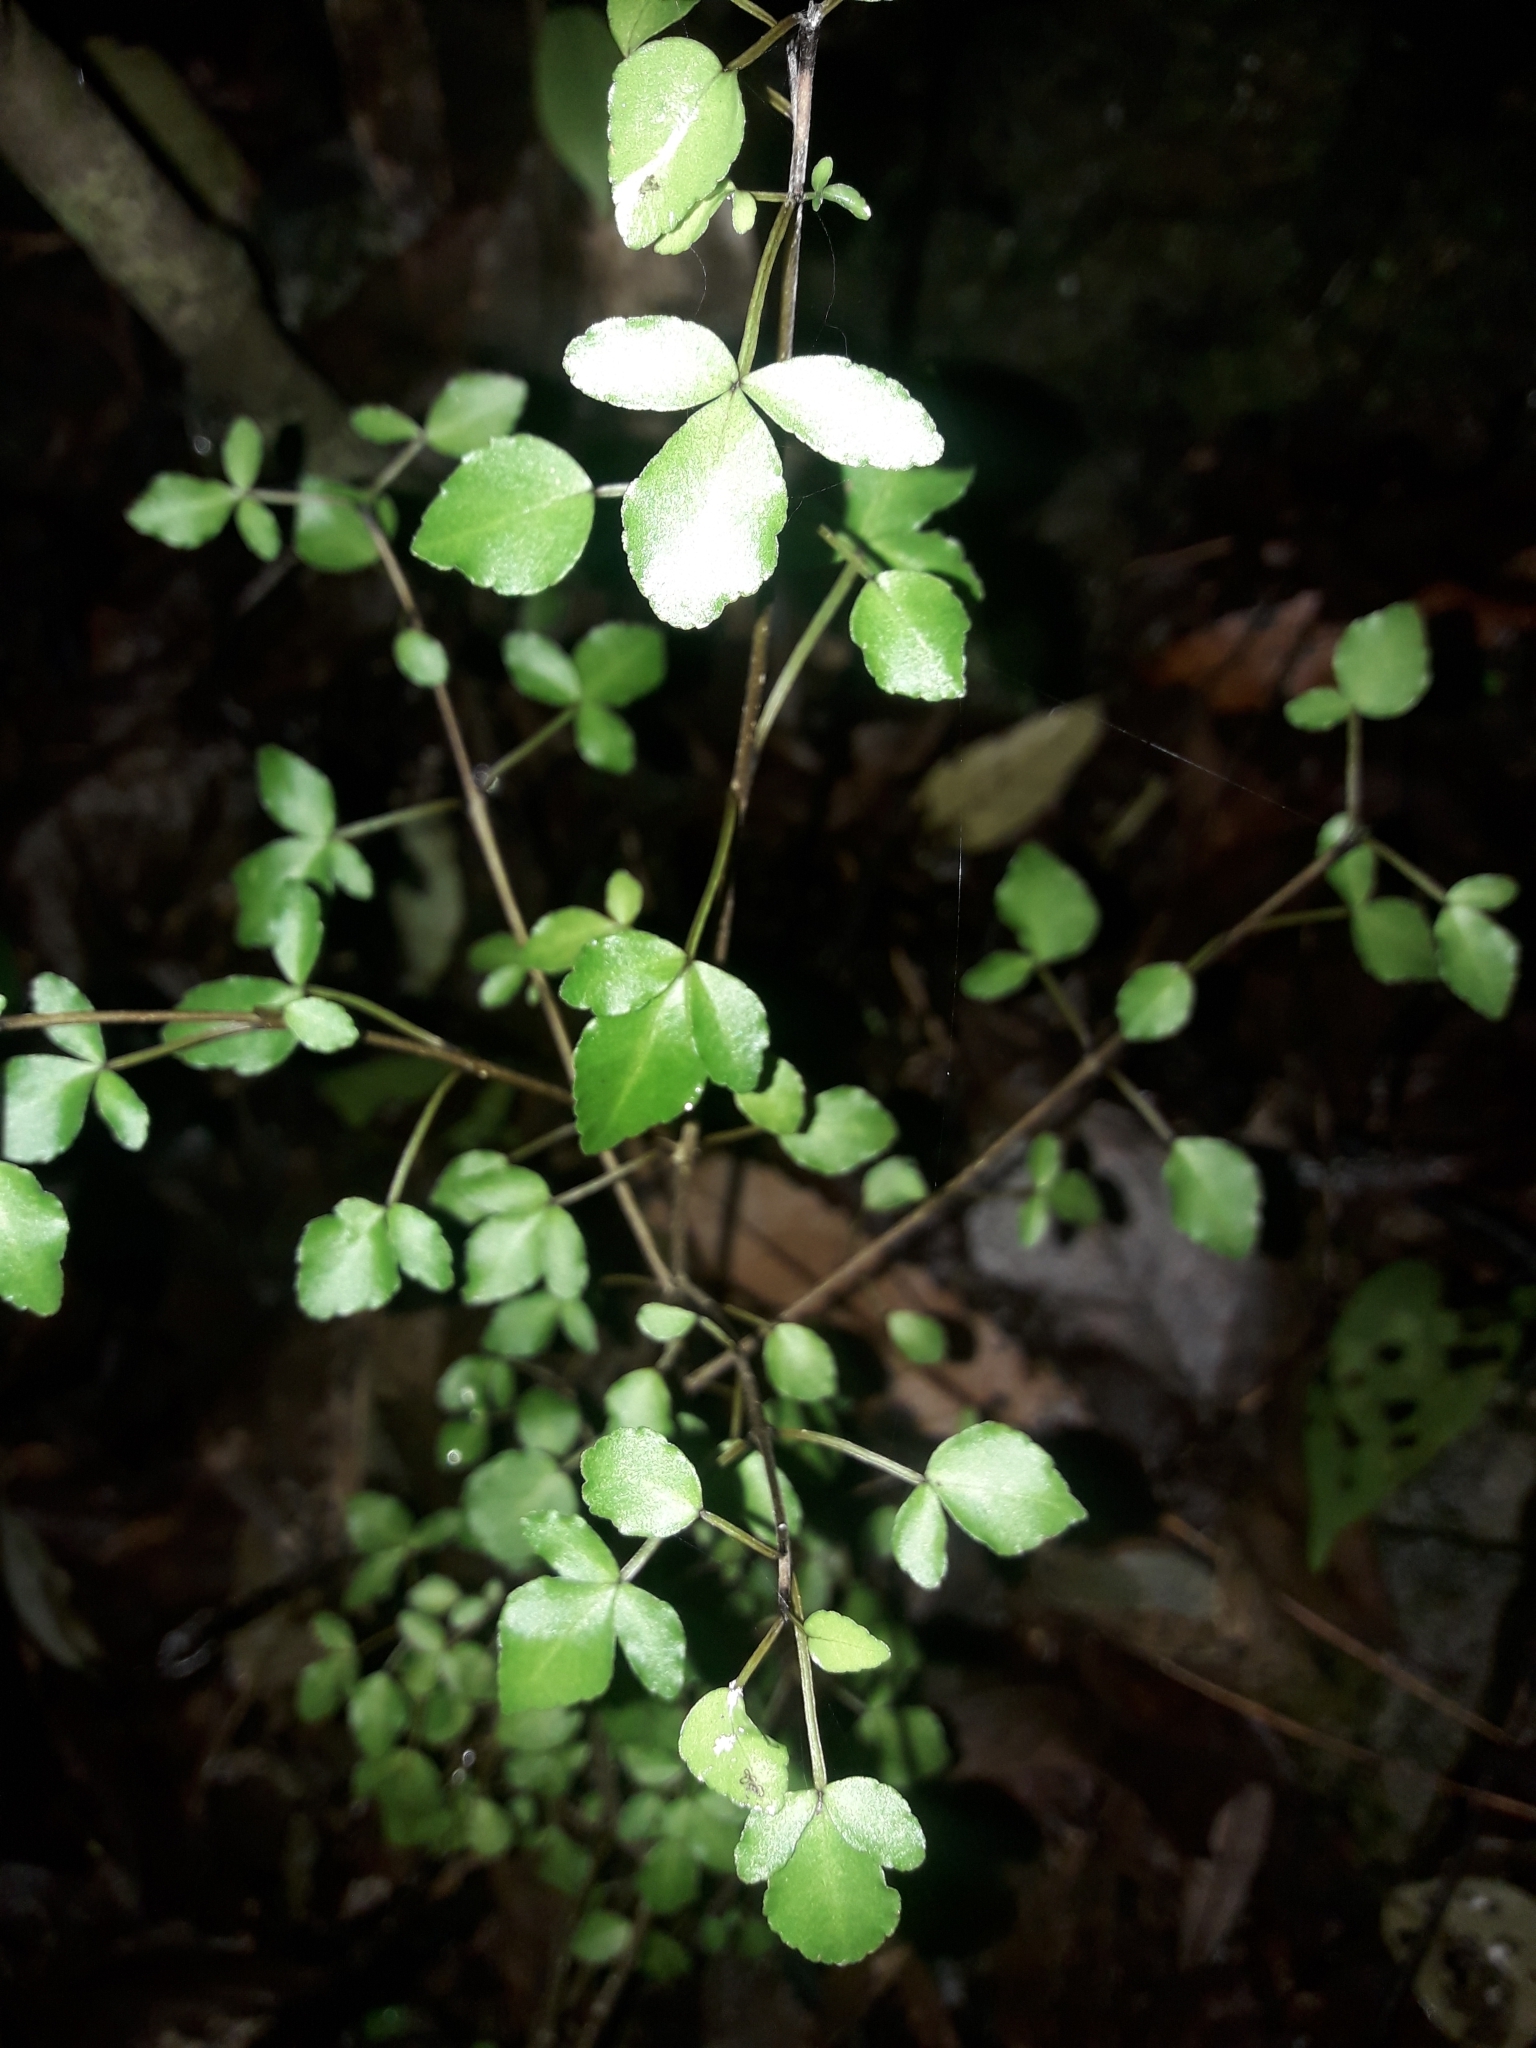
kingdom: Plantae
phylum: Tracheophyta
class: Magnoliopsida
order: Sapindales
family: Rutaceae
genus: Melicope
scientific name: Melicope simplex
